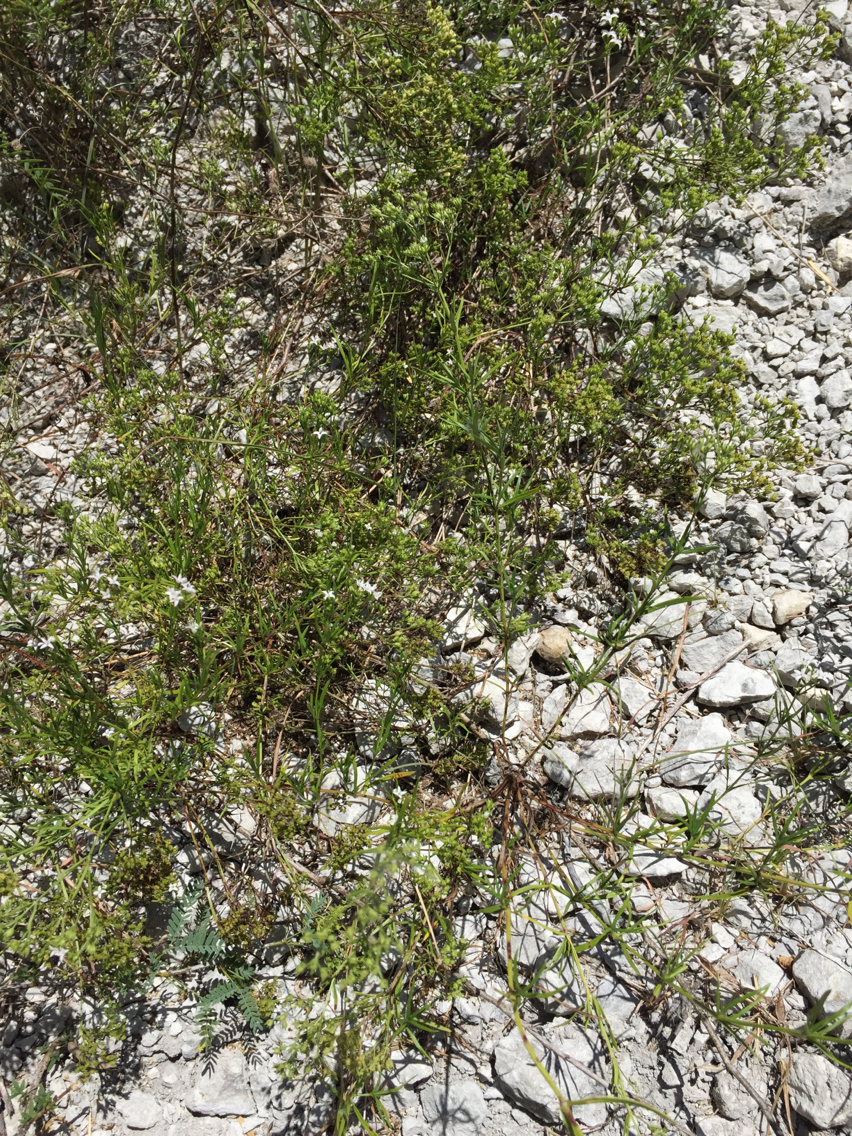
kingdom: Plantae
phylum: Tracheophyta
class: Magnoliopsida
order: Gentianales
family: Rubiaceae
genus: Stenaria
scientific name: Stenaria nigricans
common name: Diamondflowers
